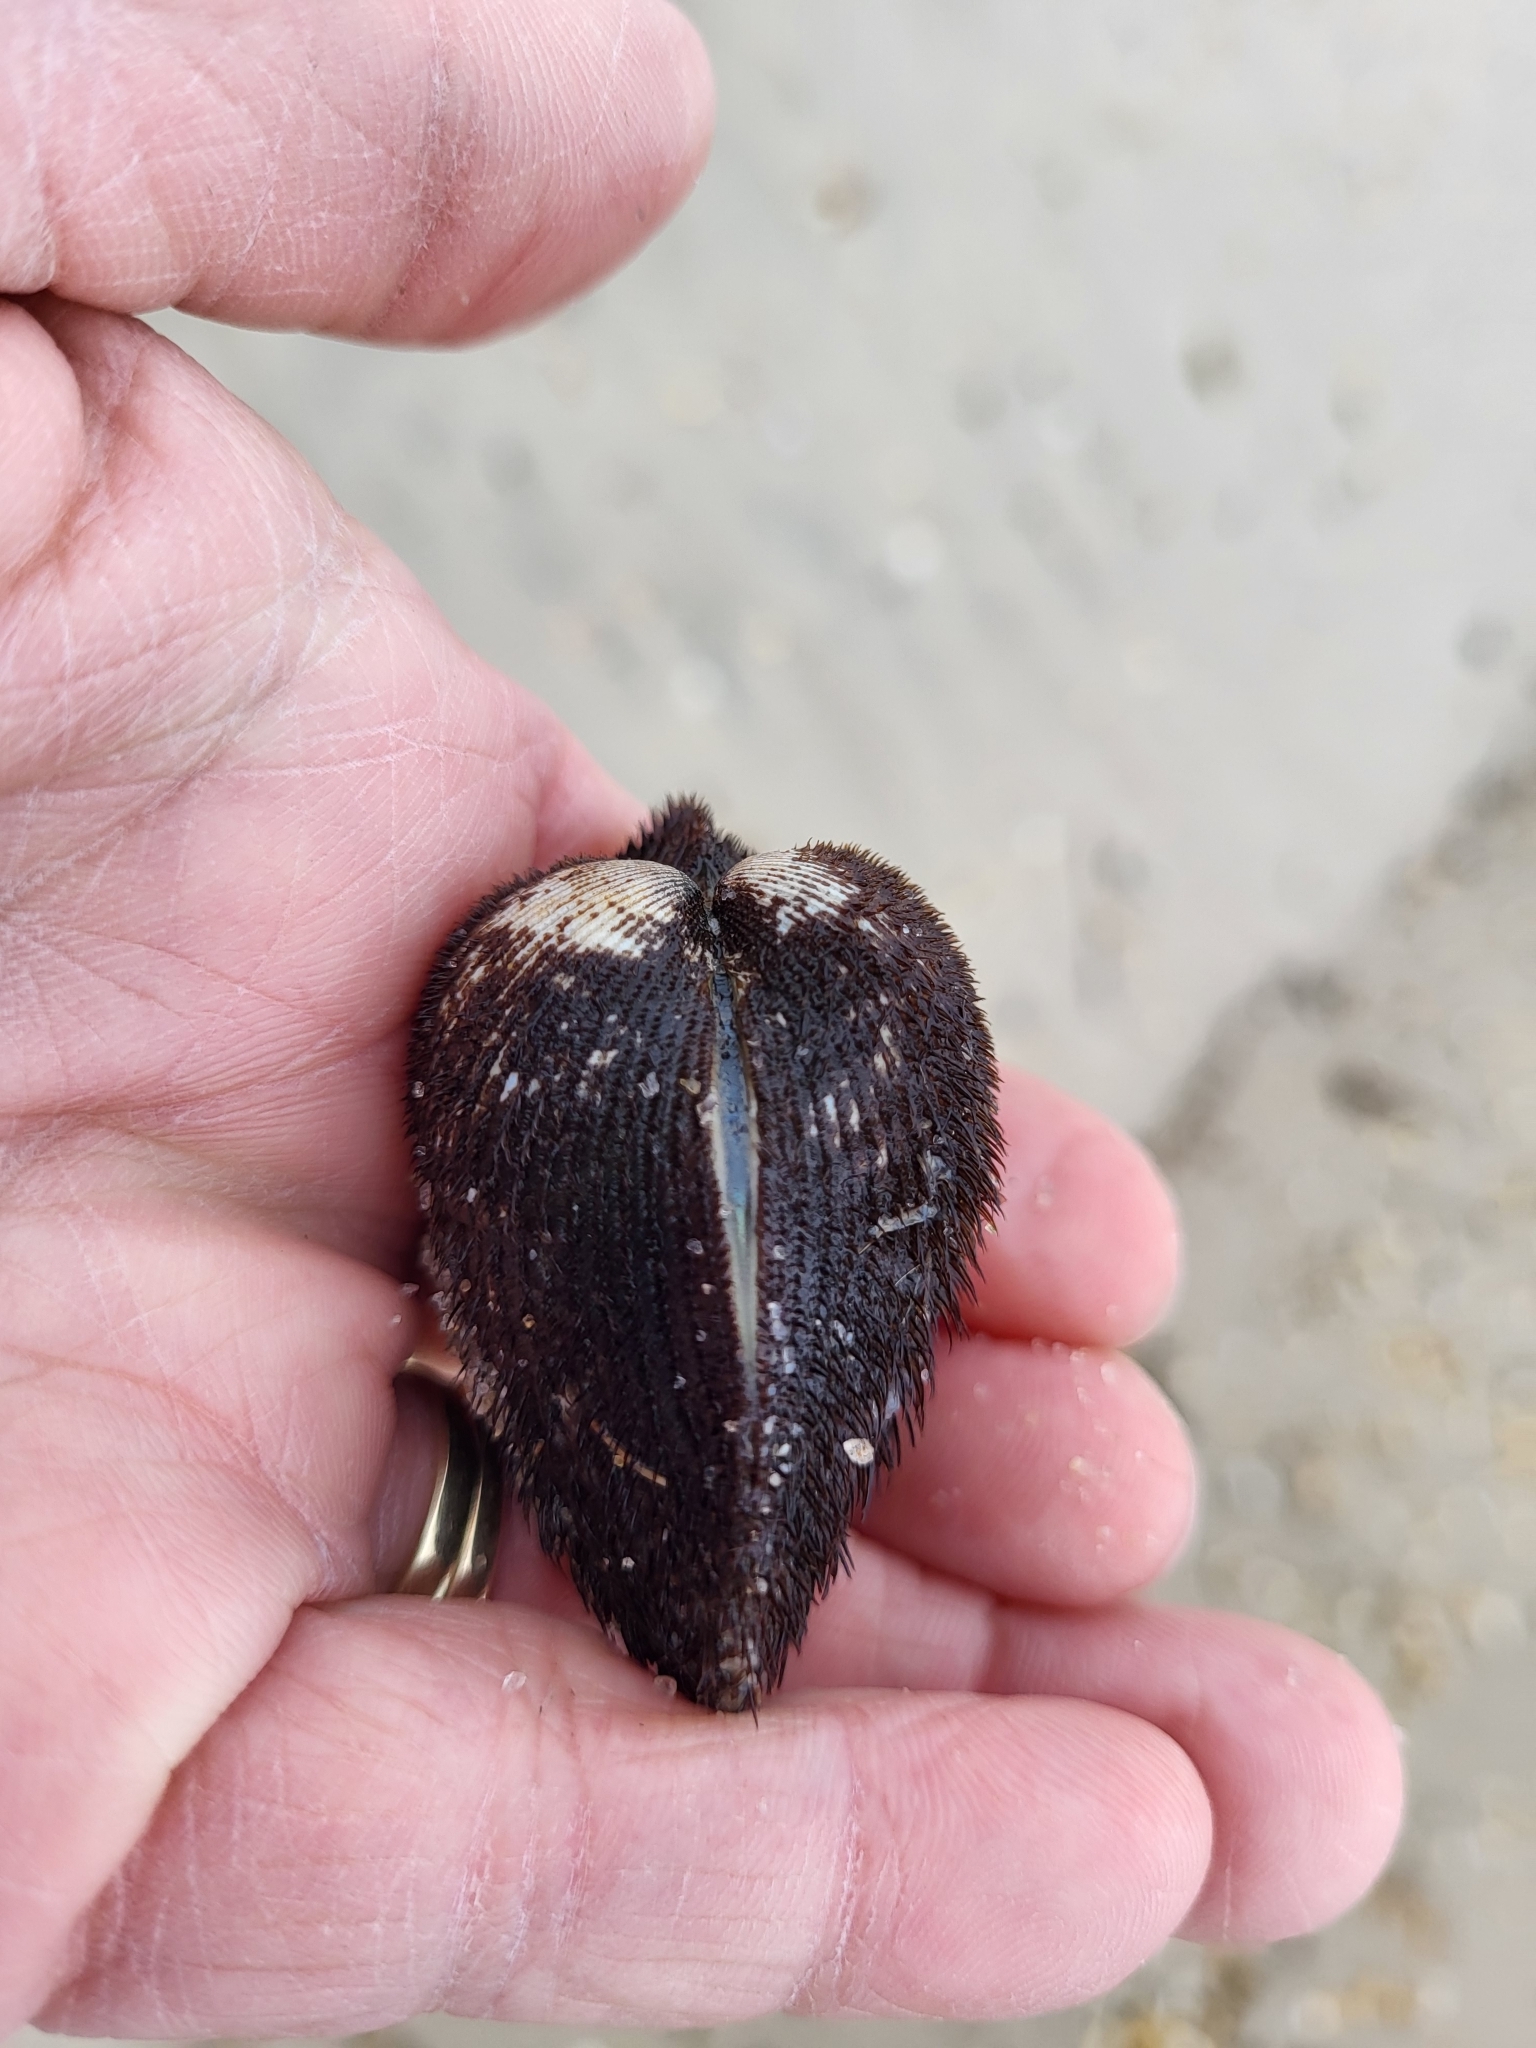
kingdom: Animalia
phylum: Mollusca
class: Bivalvia
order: Arcida
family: Arcidae
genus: Lunarca
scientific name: Lunarca ovalis
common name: Blood ark
